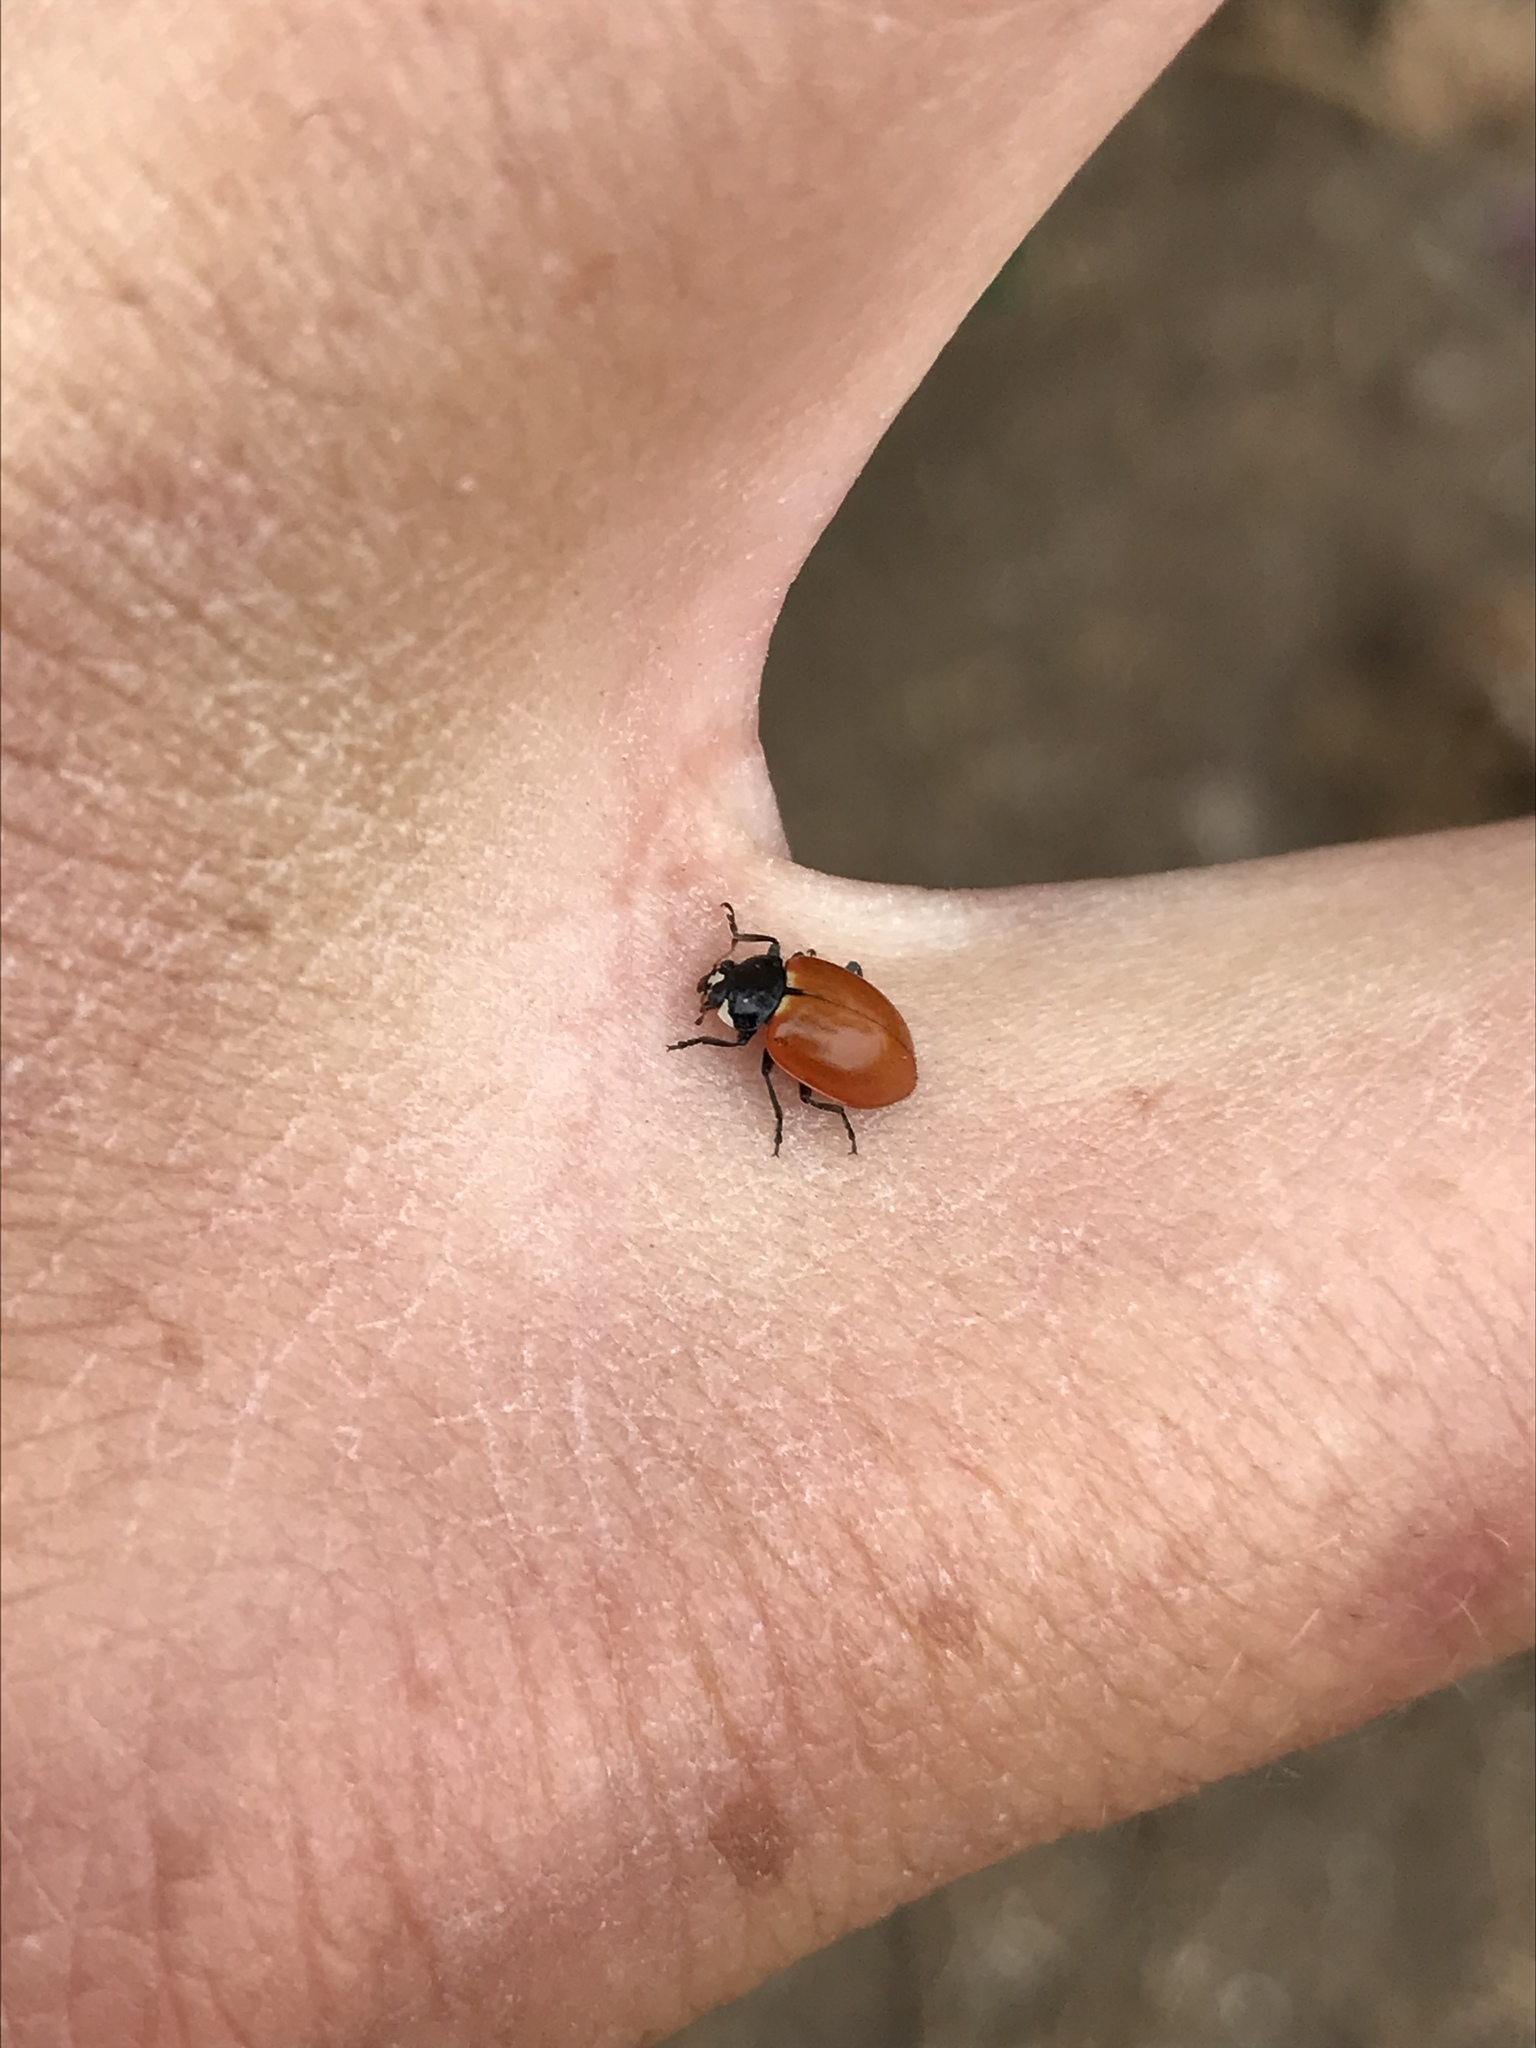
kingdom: Animalia
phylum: Arthropoda
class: Insecta
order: Coleoptera
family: Coccinellidae
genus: Hippodamia
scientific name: Hippodamia quinquesignata
